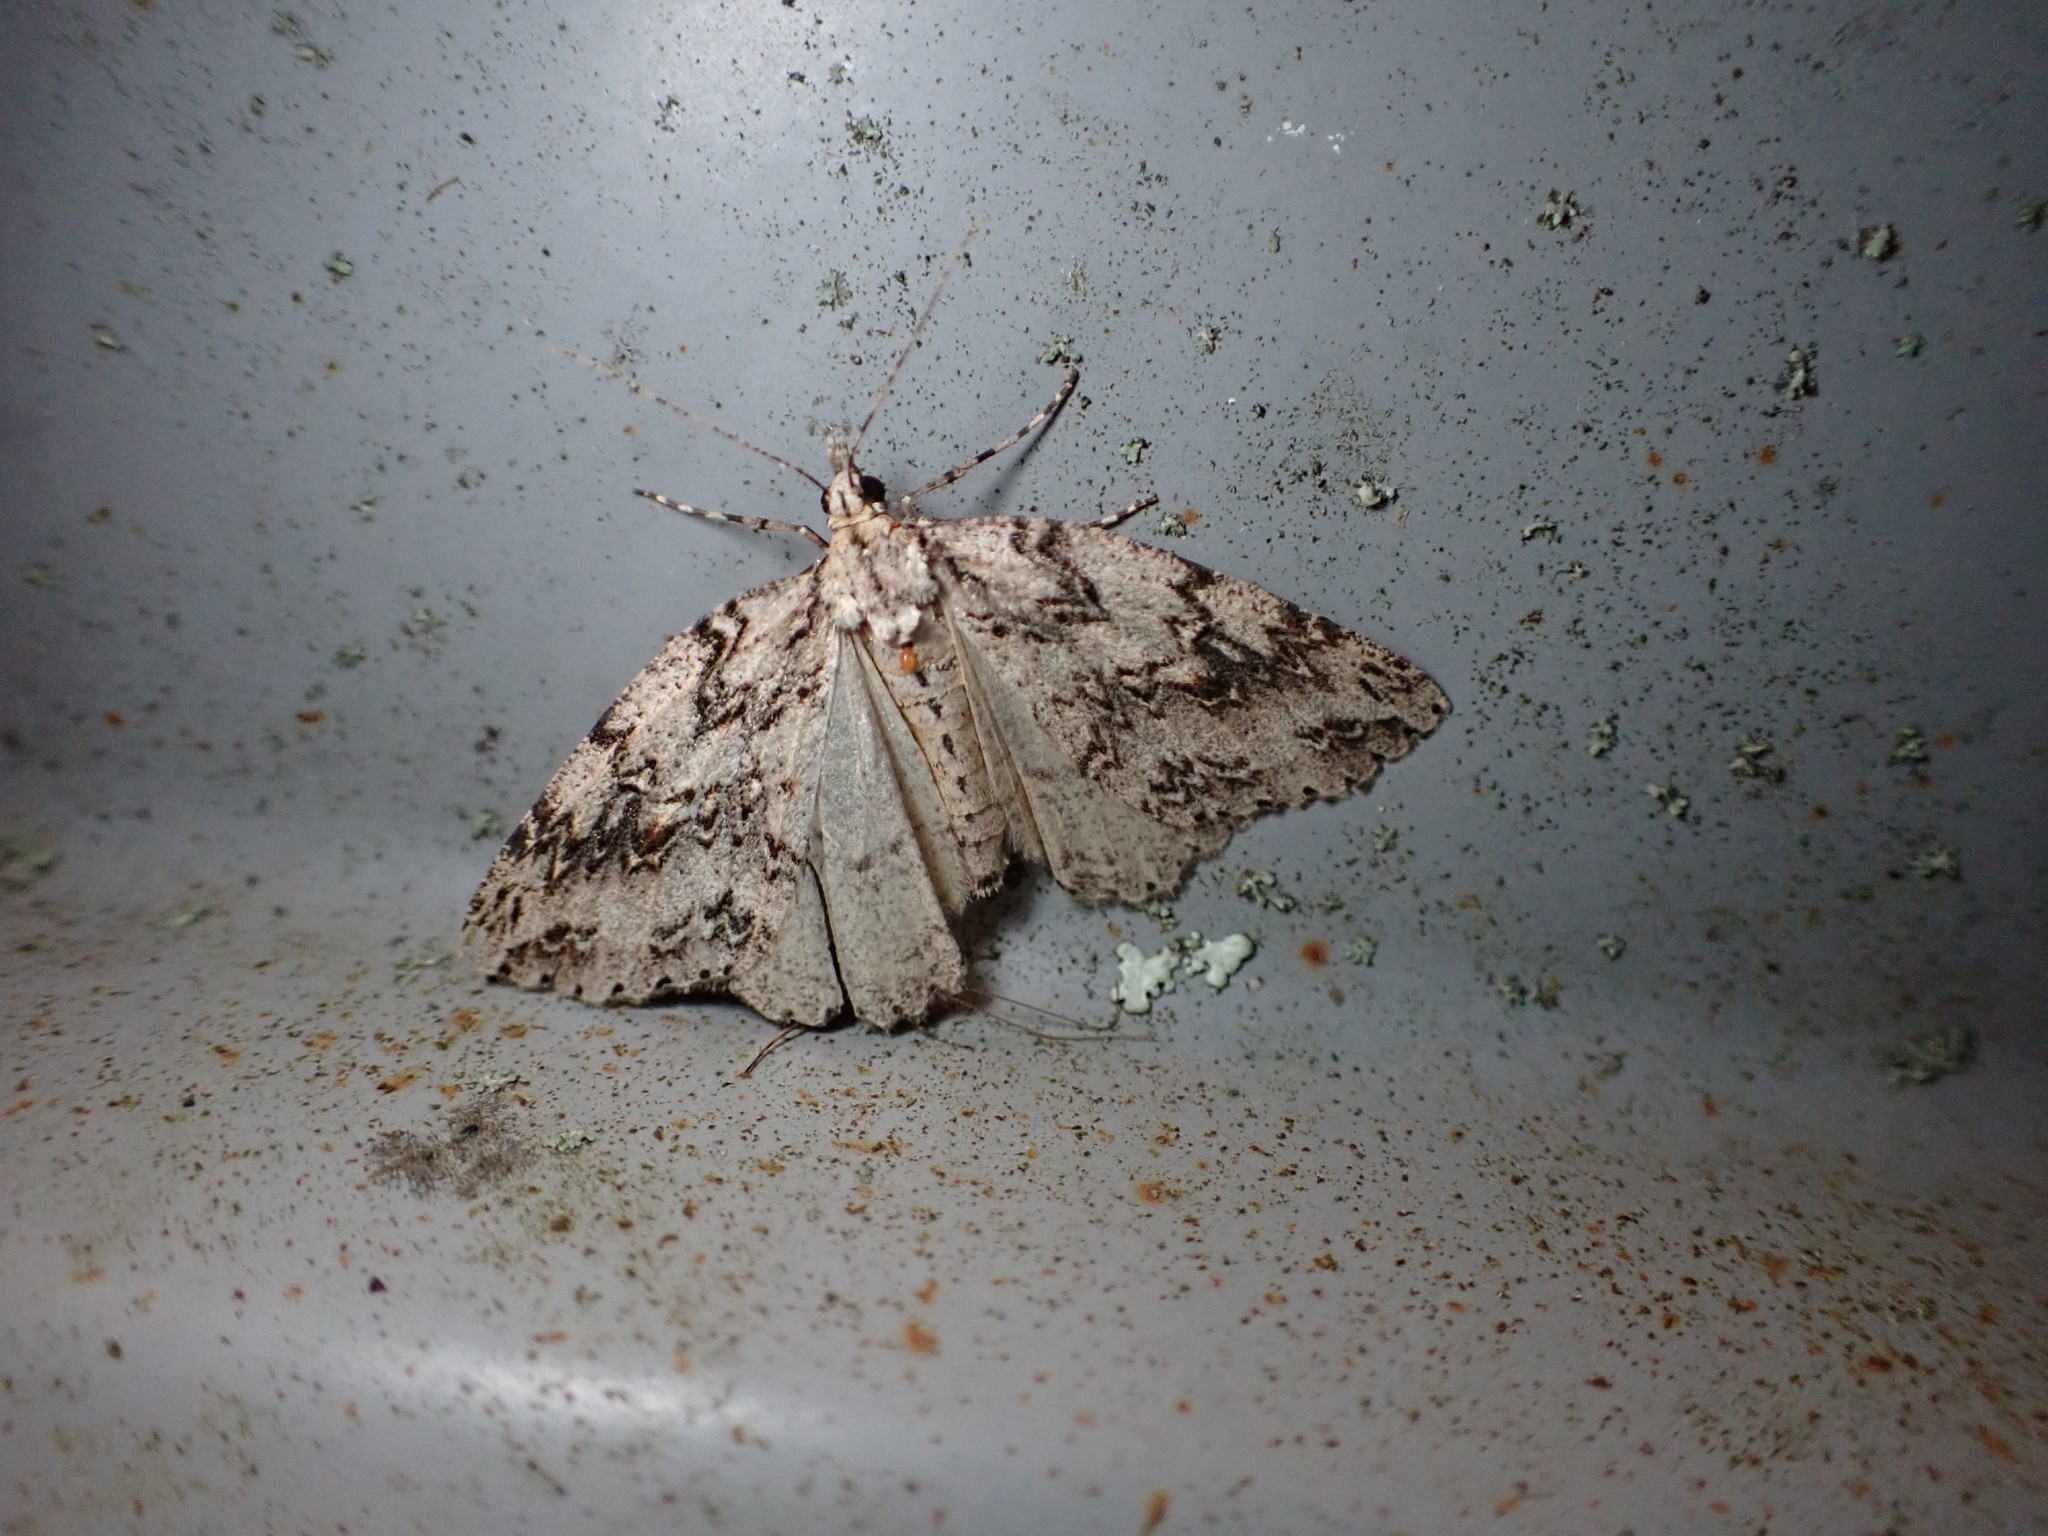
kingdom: Animalia
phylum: Arthropoda
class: Insecta
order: Lepidoptera
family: Geometridae
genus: Pseudocoremia
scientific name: Pseudocoremia rudisata
